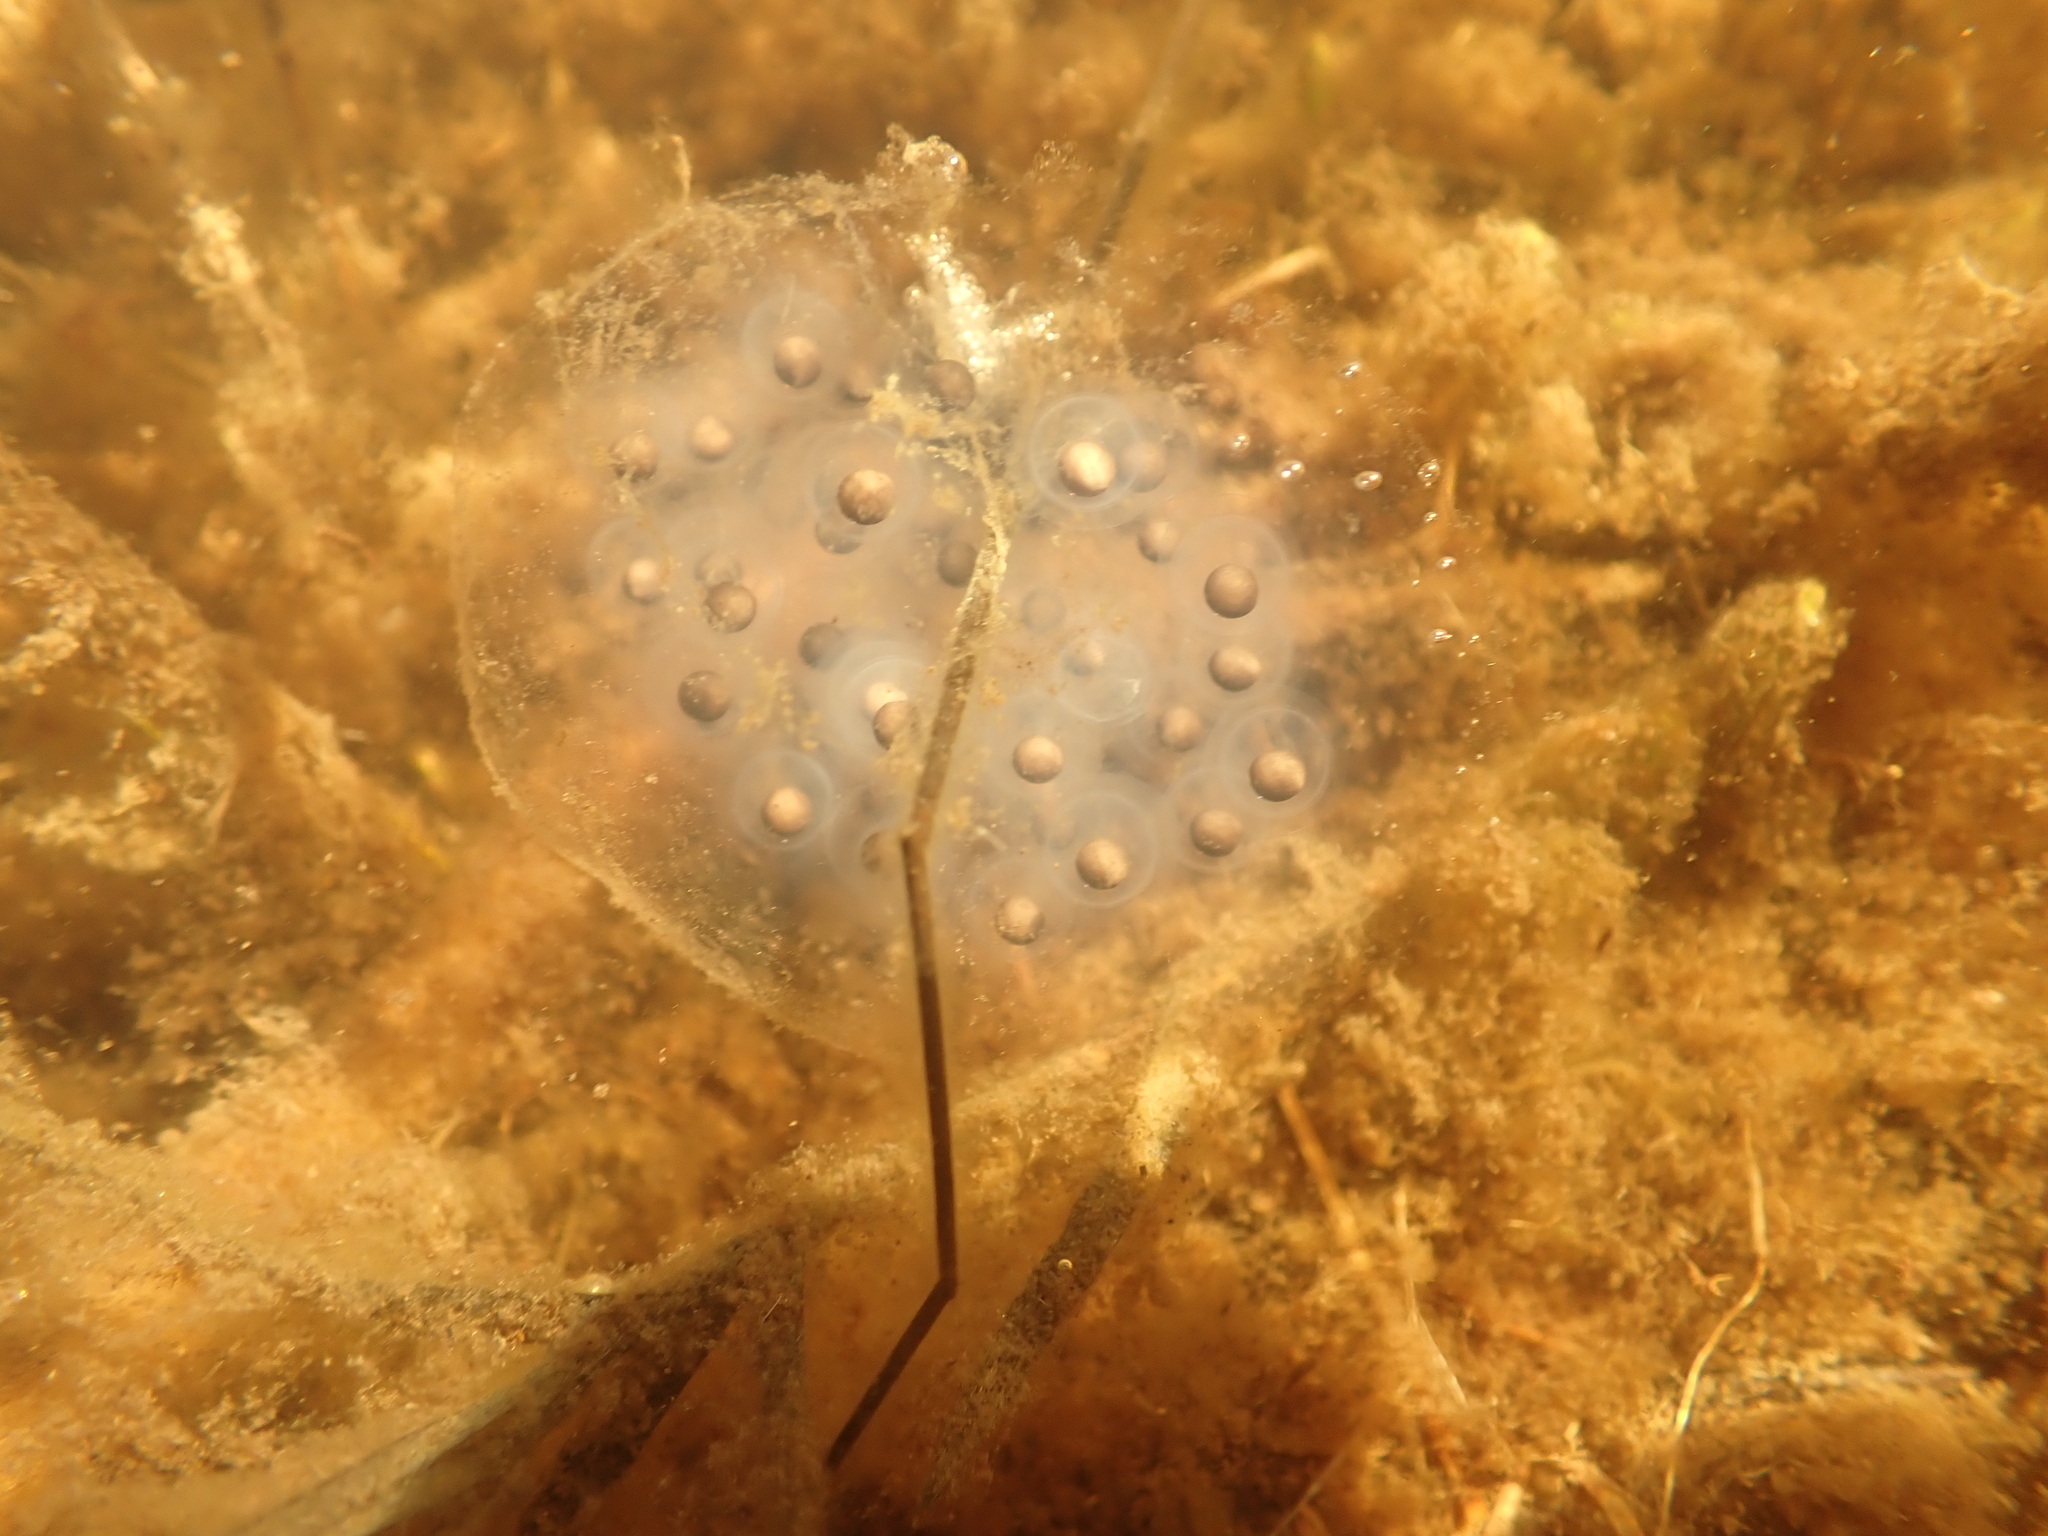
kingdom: Animalia
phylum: Chordata
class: Amphibia
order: Caudata
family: Ambystomatidae
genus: Ambystoma
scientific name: Ambystoma maculatum
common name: Spotted salamander
